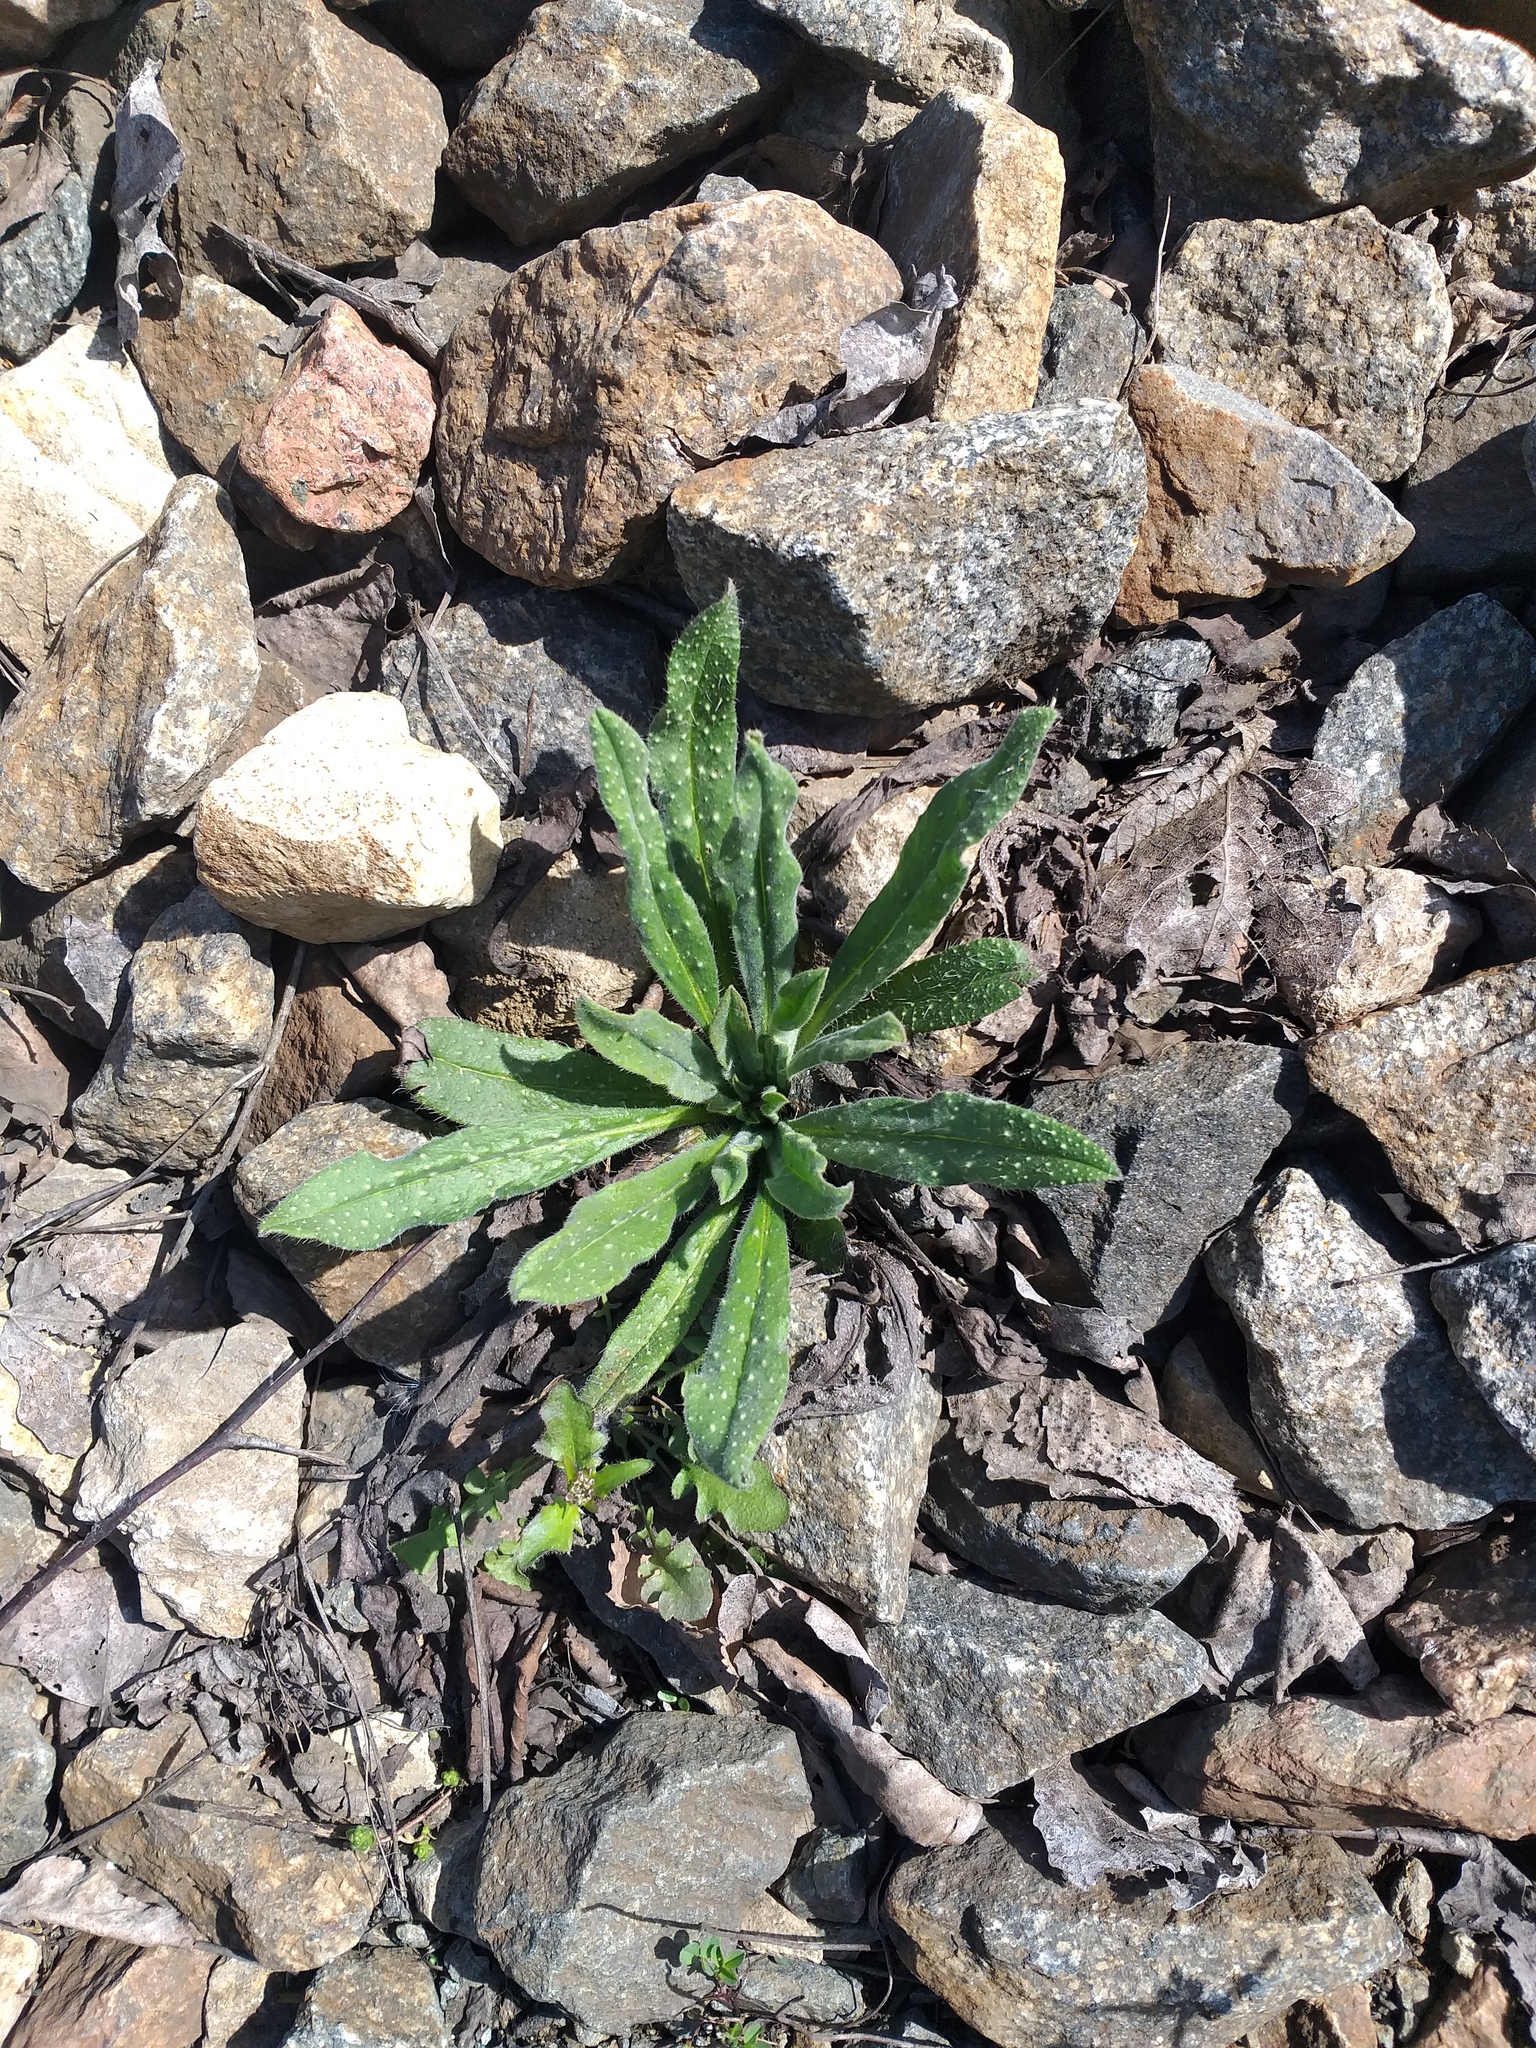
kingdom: Plantae
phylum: Tracheophyta
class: Magnoliopsida
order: Boraginales
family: Boraginaceae
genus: Echium
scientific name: Echium vulgare
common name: Common viper's bugloss
